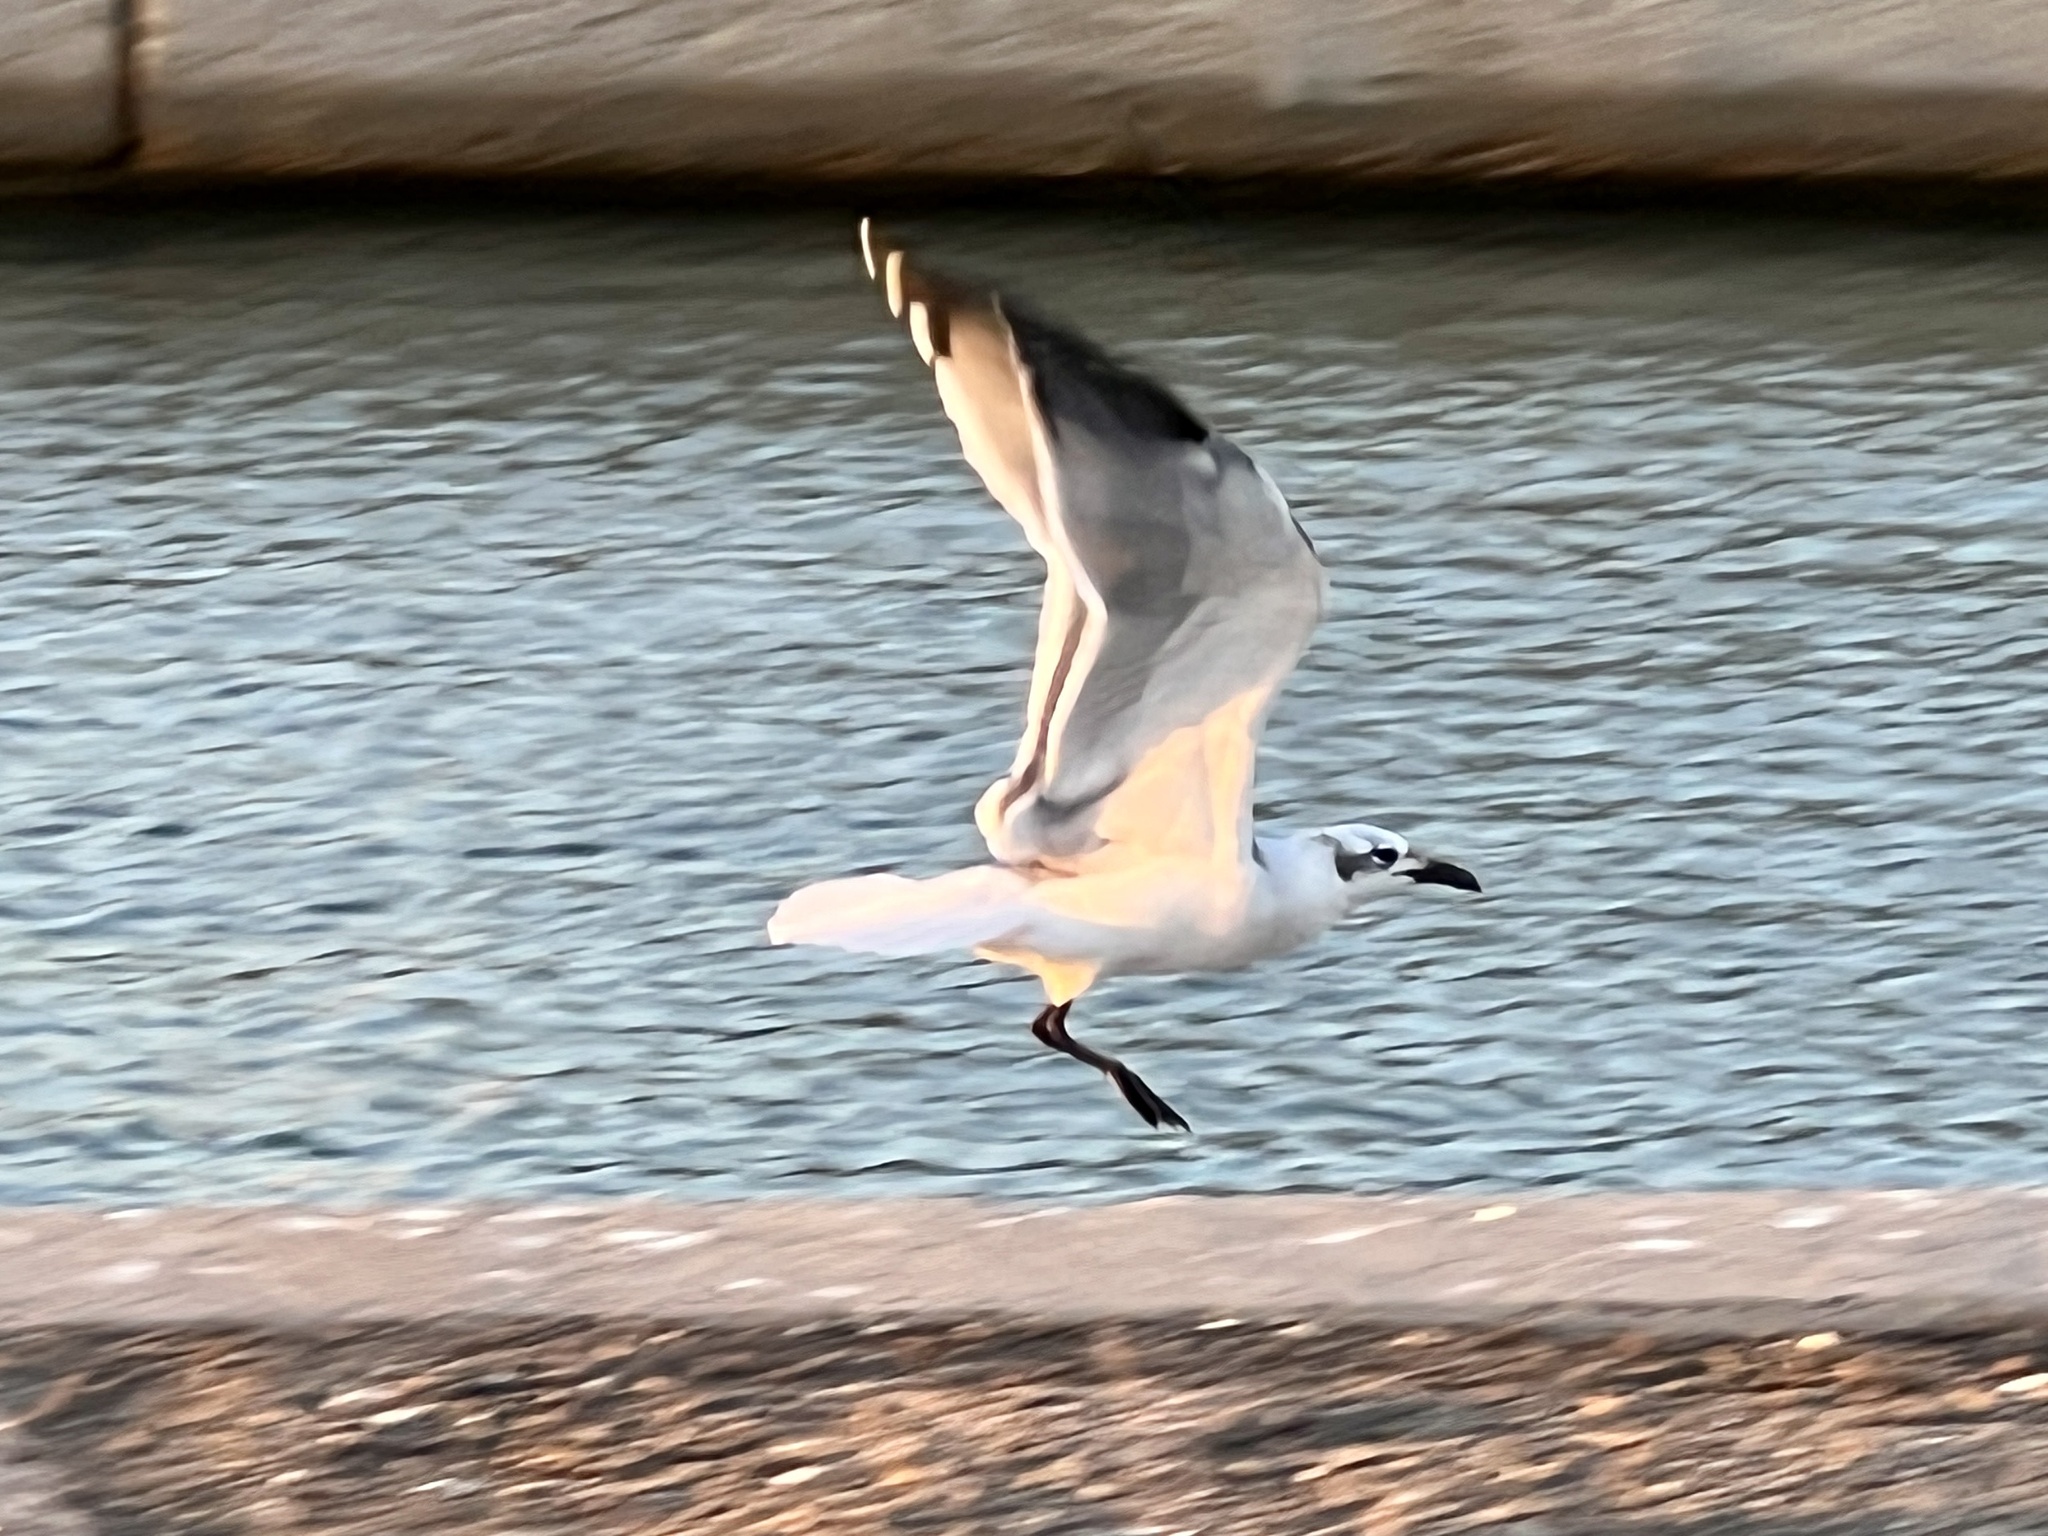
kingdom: Animalia
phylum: Chordata
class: Aves
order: Charadriiformes
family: Laridae
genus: Leucophaeus
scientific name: Leucophaeus atricilla
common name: Laughing gull
